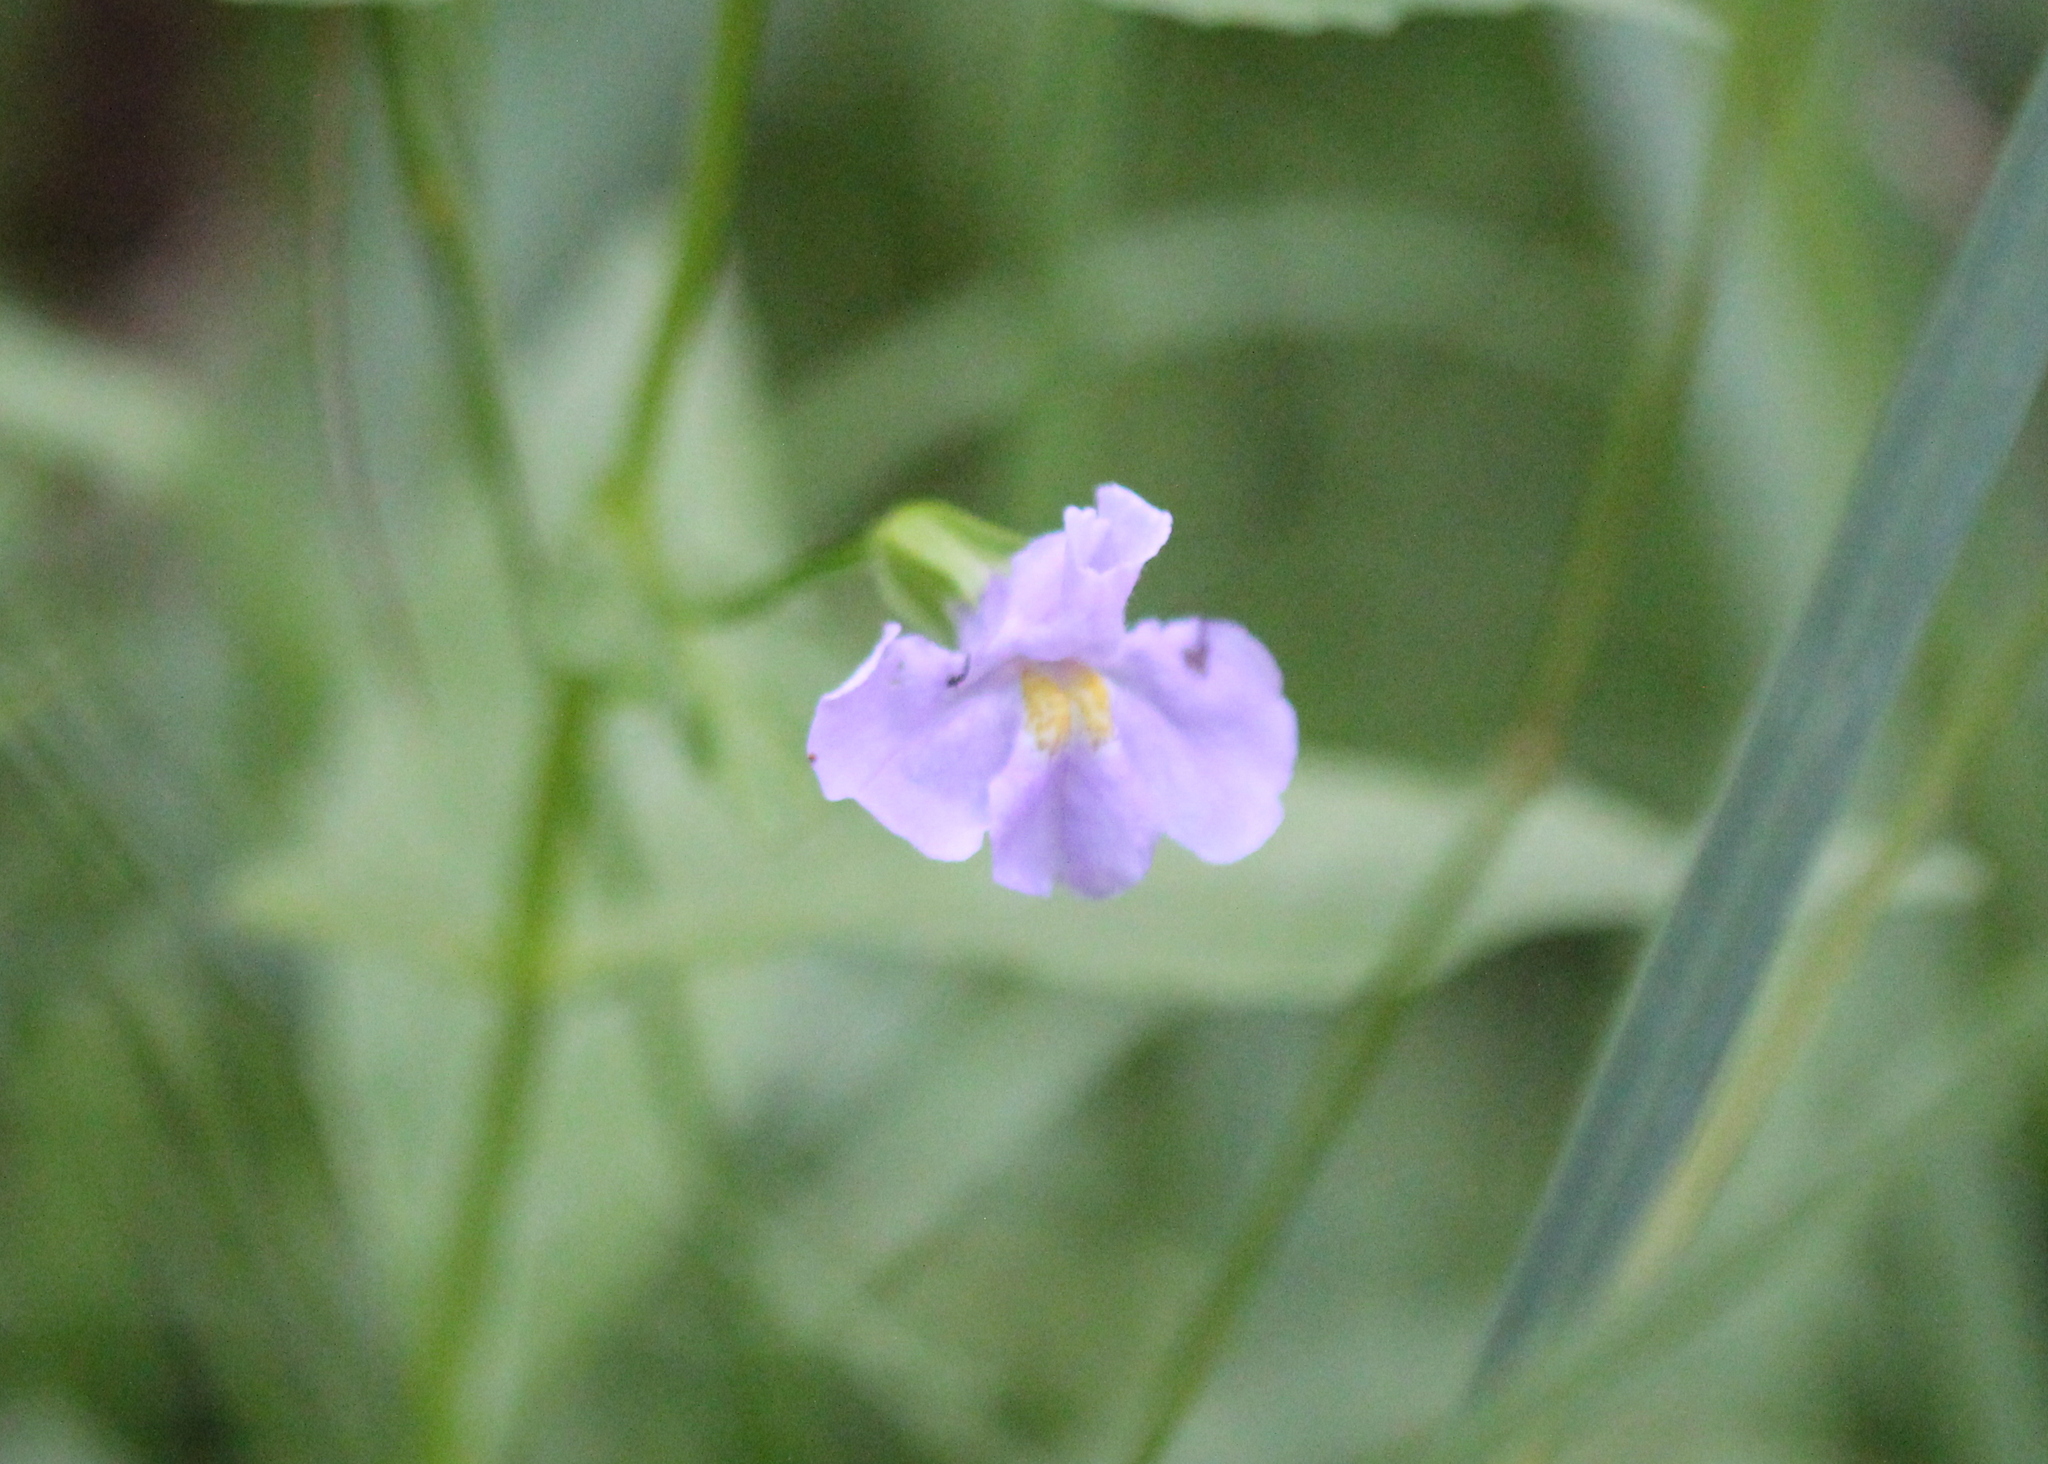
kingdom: Plantae
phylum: Tracheophyta
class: Magnoliopsida
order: Lamiales
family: Phrymaceae
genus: Mimulus
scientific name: Mimulus ringens
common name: Allegheny monkeyflower
